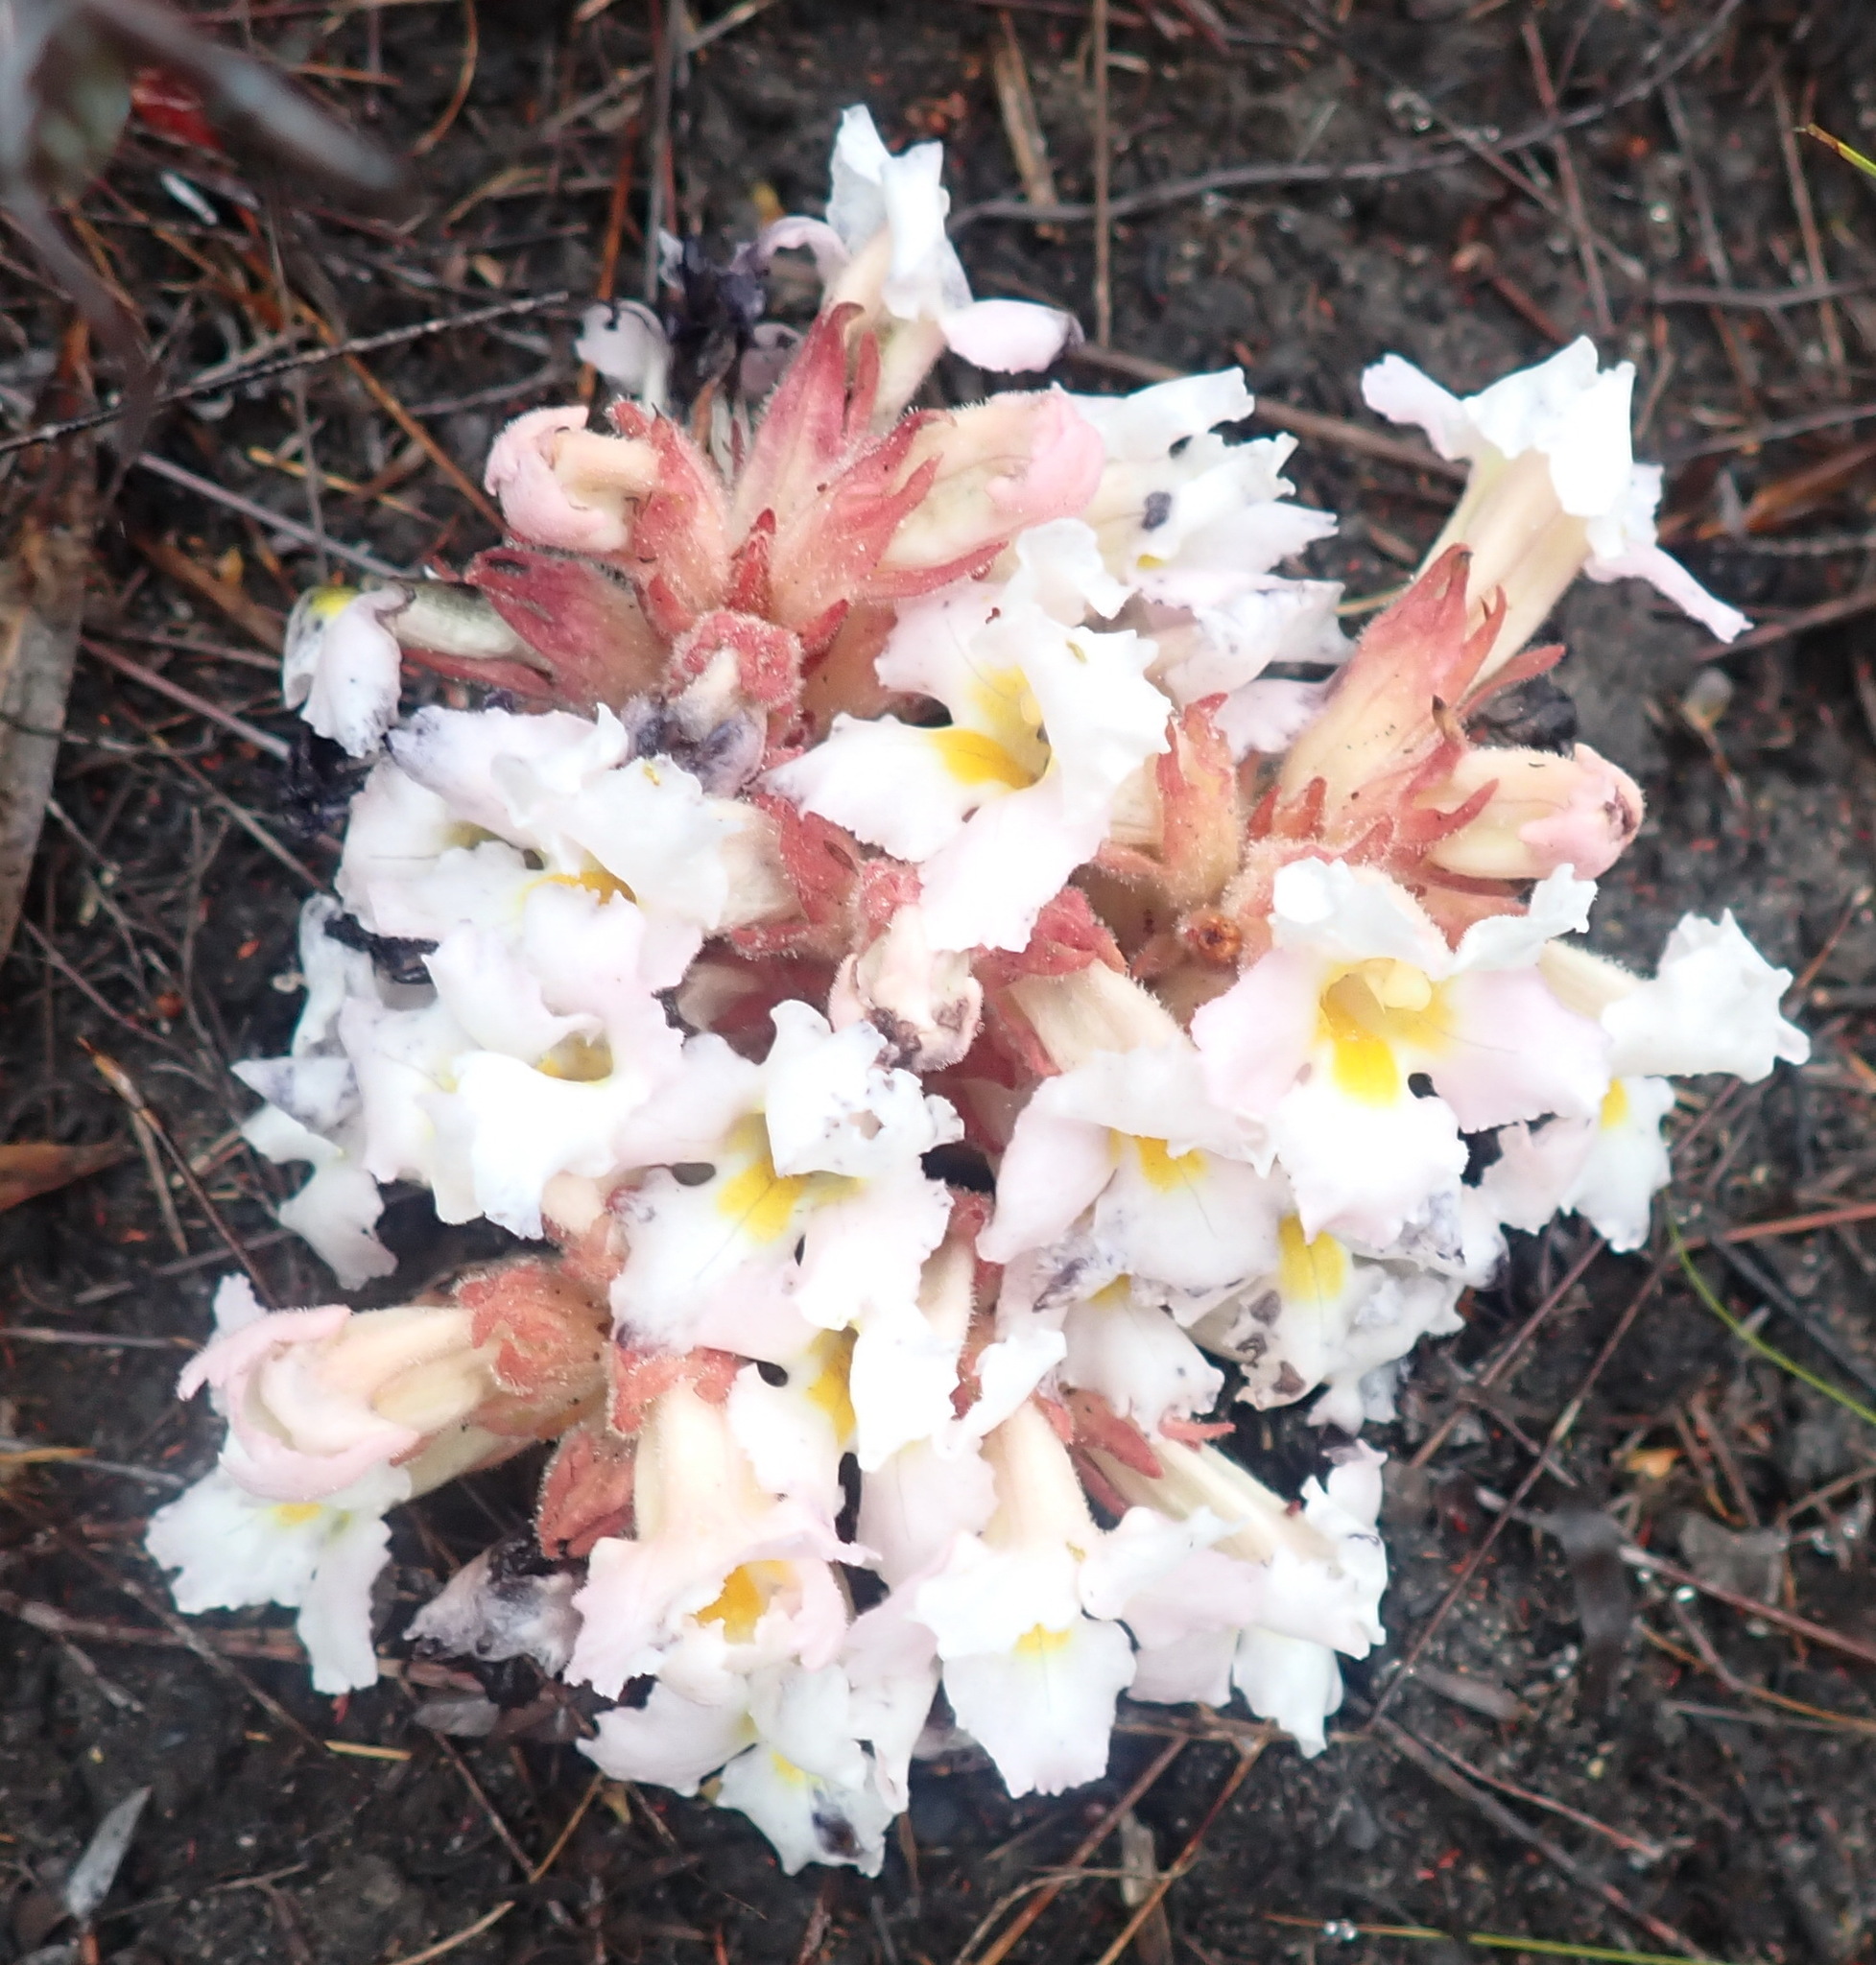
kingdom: Plantae
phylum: Tracheophyta
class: Magnoliopsida
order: Lamiales
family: Orobanchaceae
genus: Harveya
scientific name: Harveya purpurea
